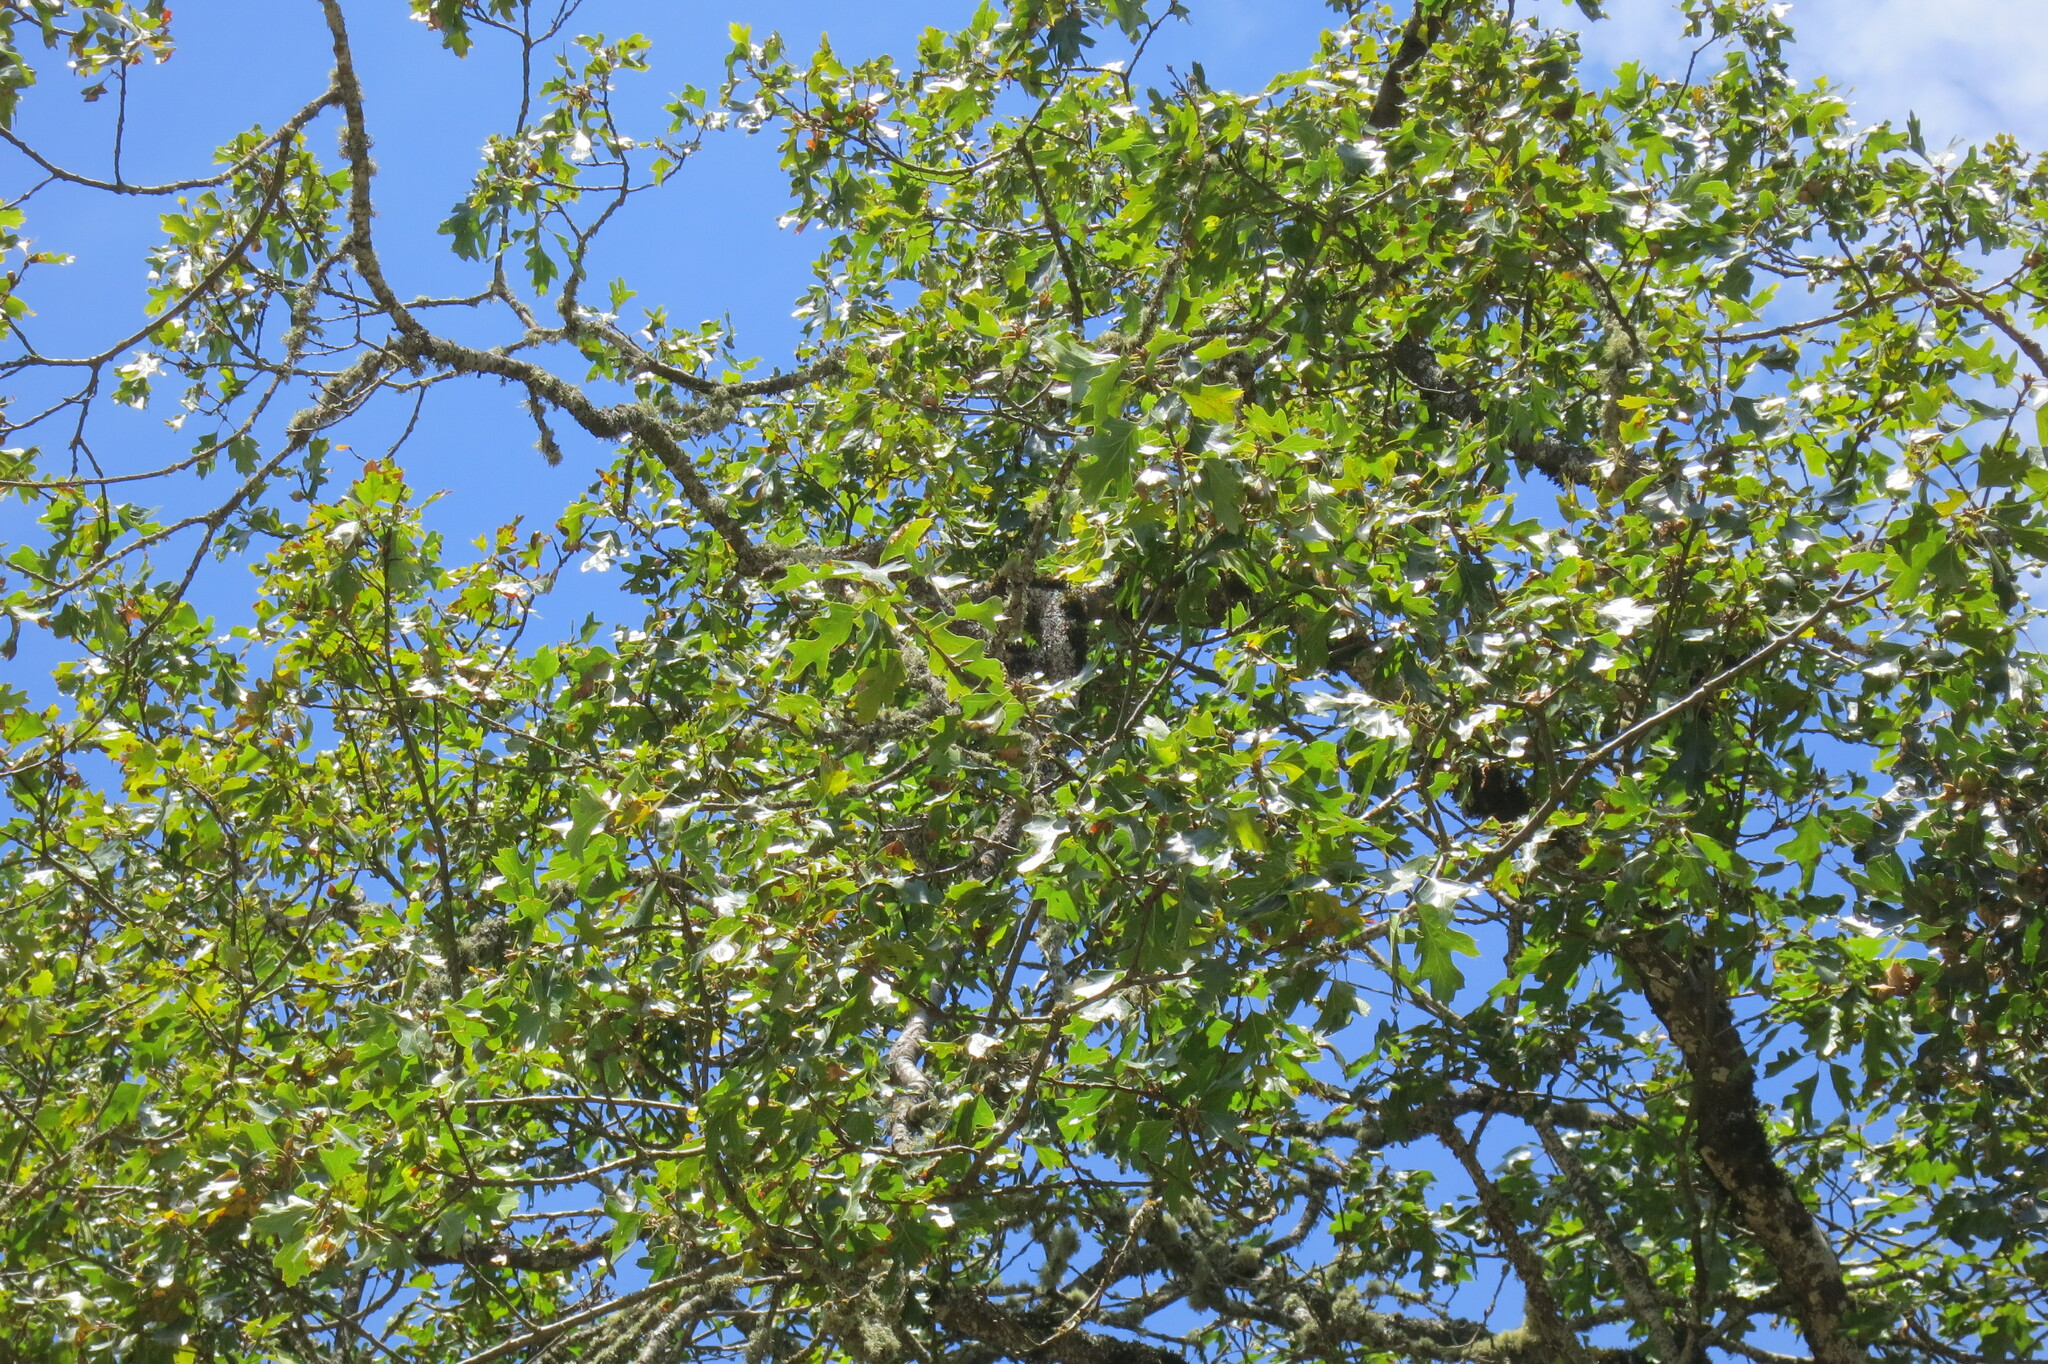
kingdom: Plantae
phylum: Tracheophyta
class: Magnoliopsida
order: Fagales
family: Fagaceae
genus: Quercus
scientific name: Quercus kelloggii
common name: California black oak
